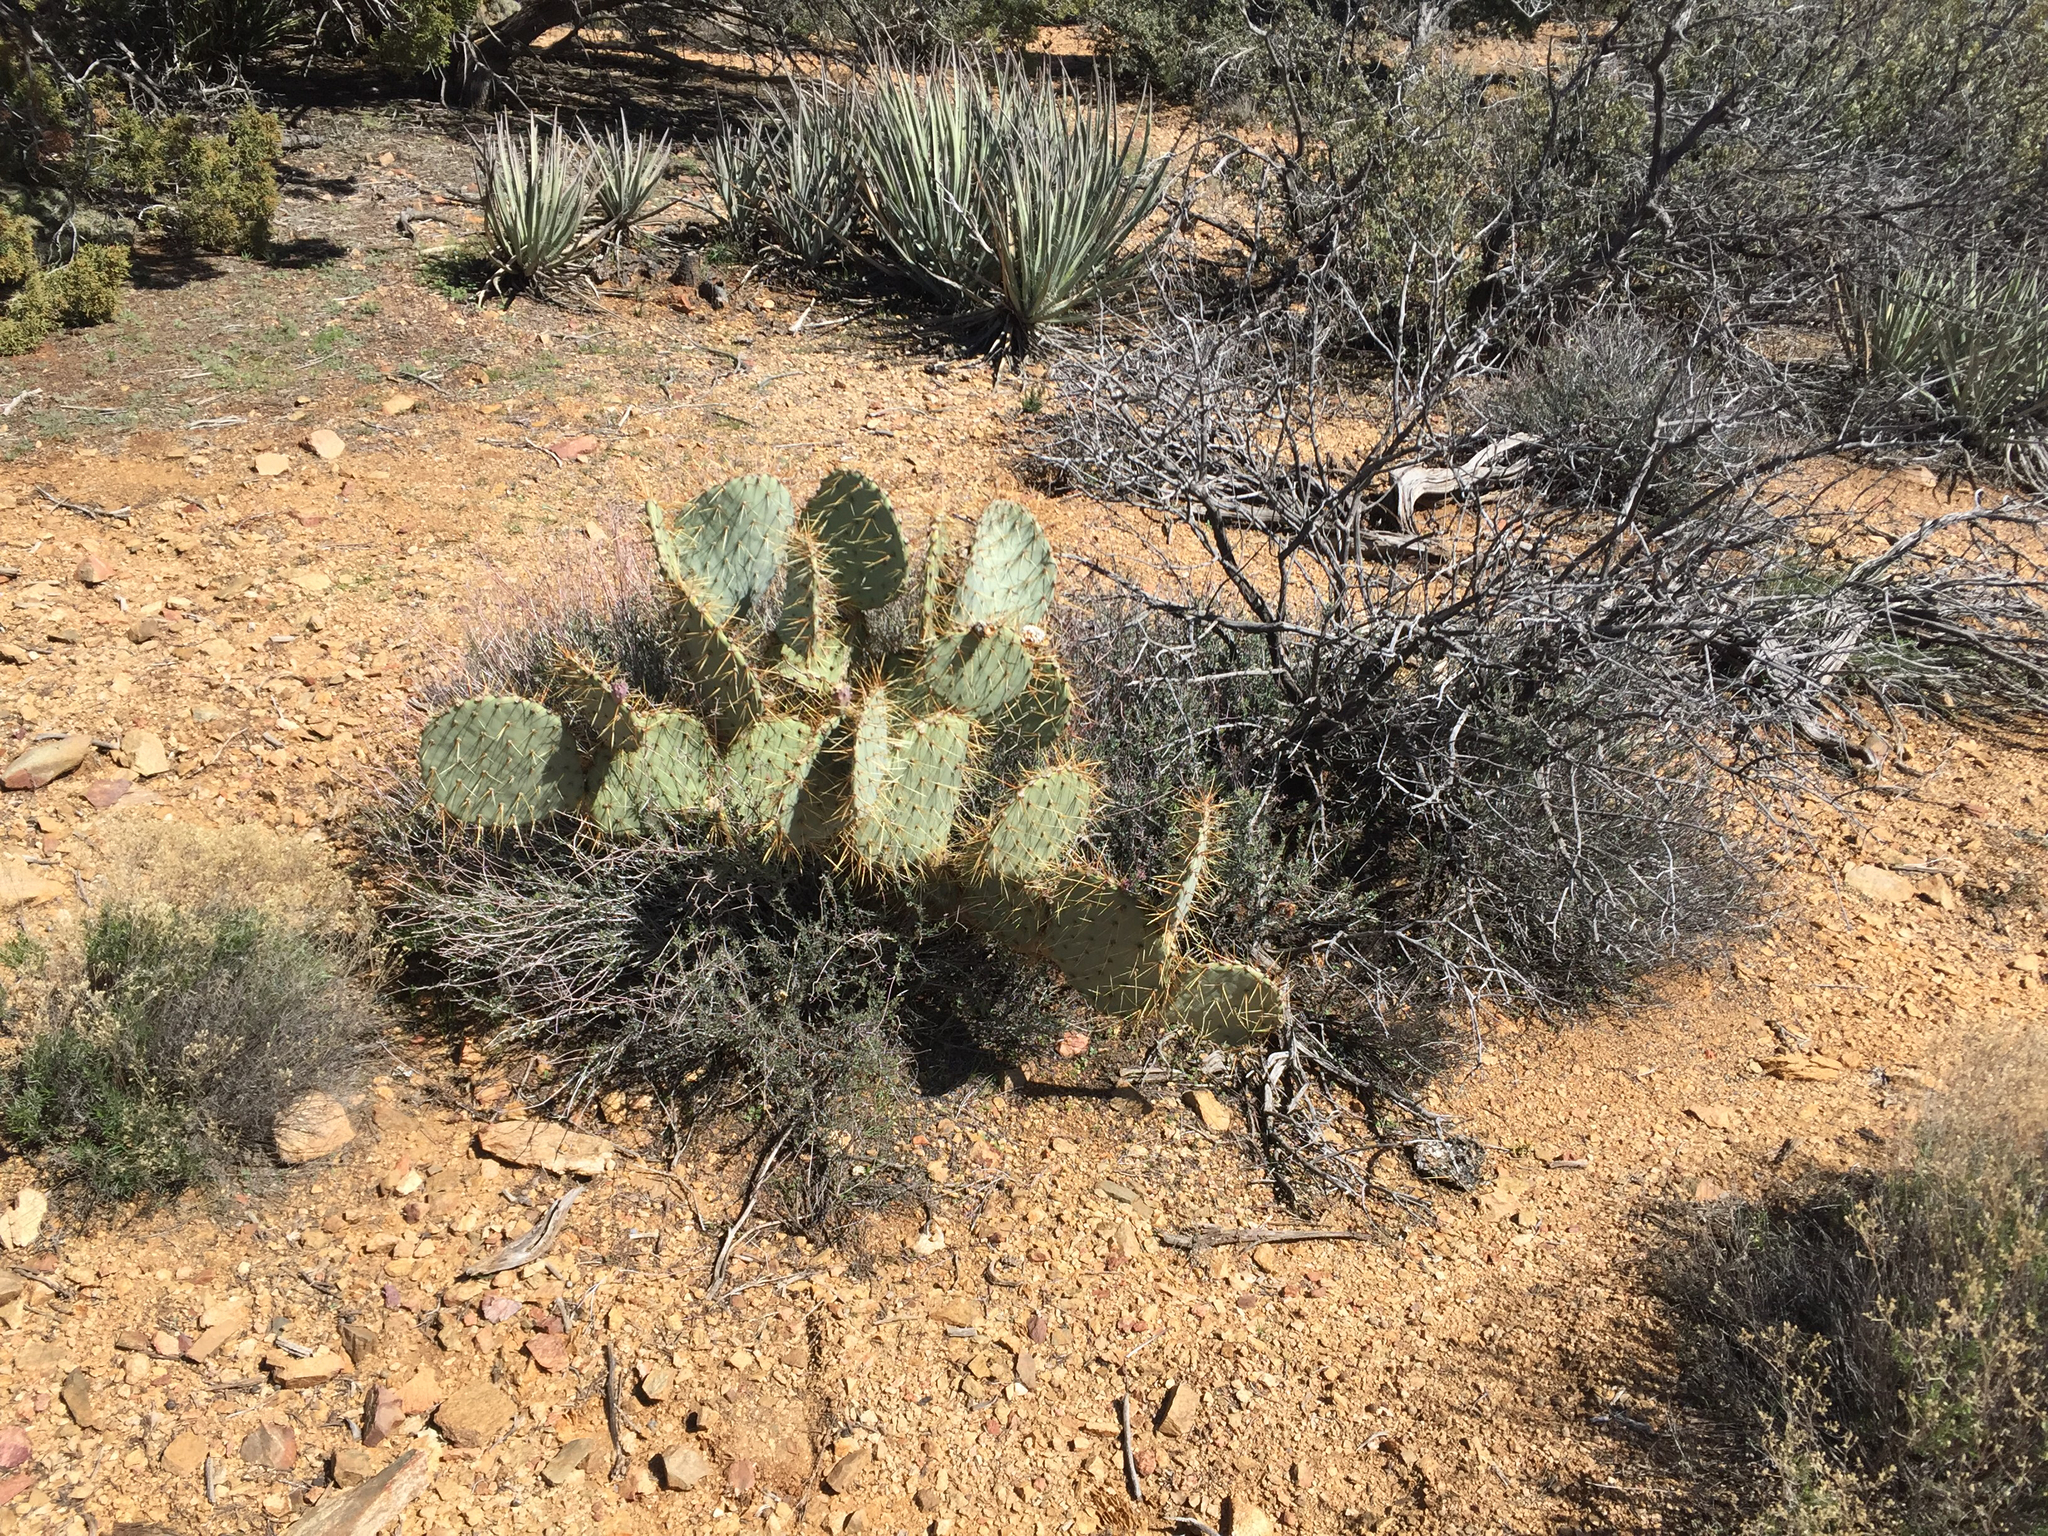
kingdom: Plantae
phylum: Tracheophyta
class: Magnoliopsida
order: Caryophyllales
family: Cactaceae
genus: Opuntia
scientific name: Opuntia curvispina
